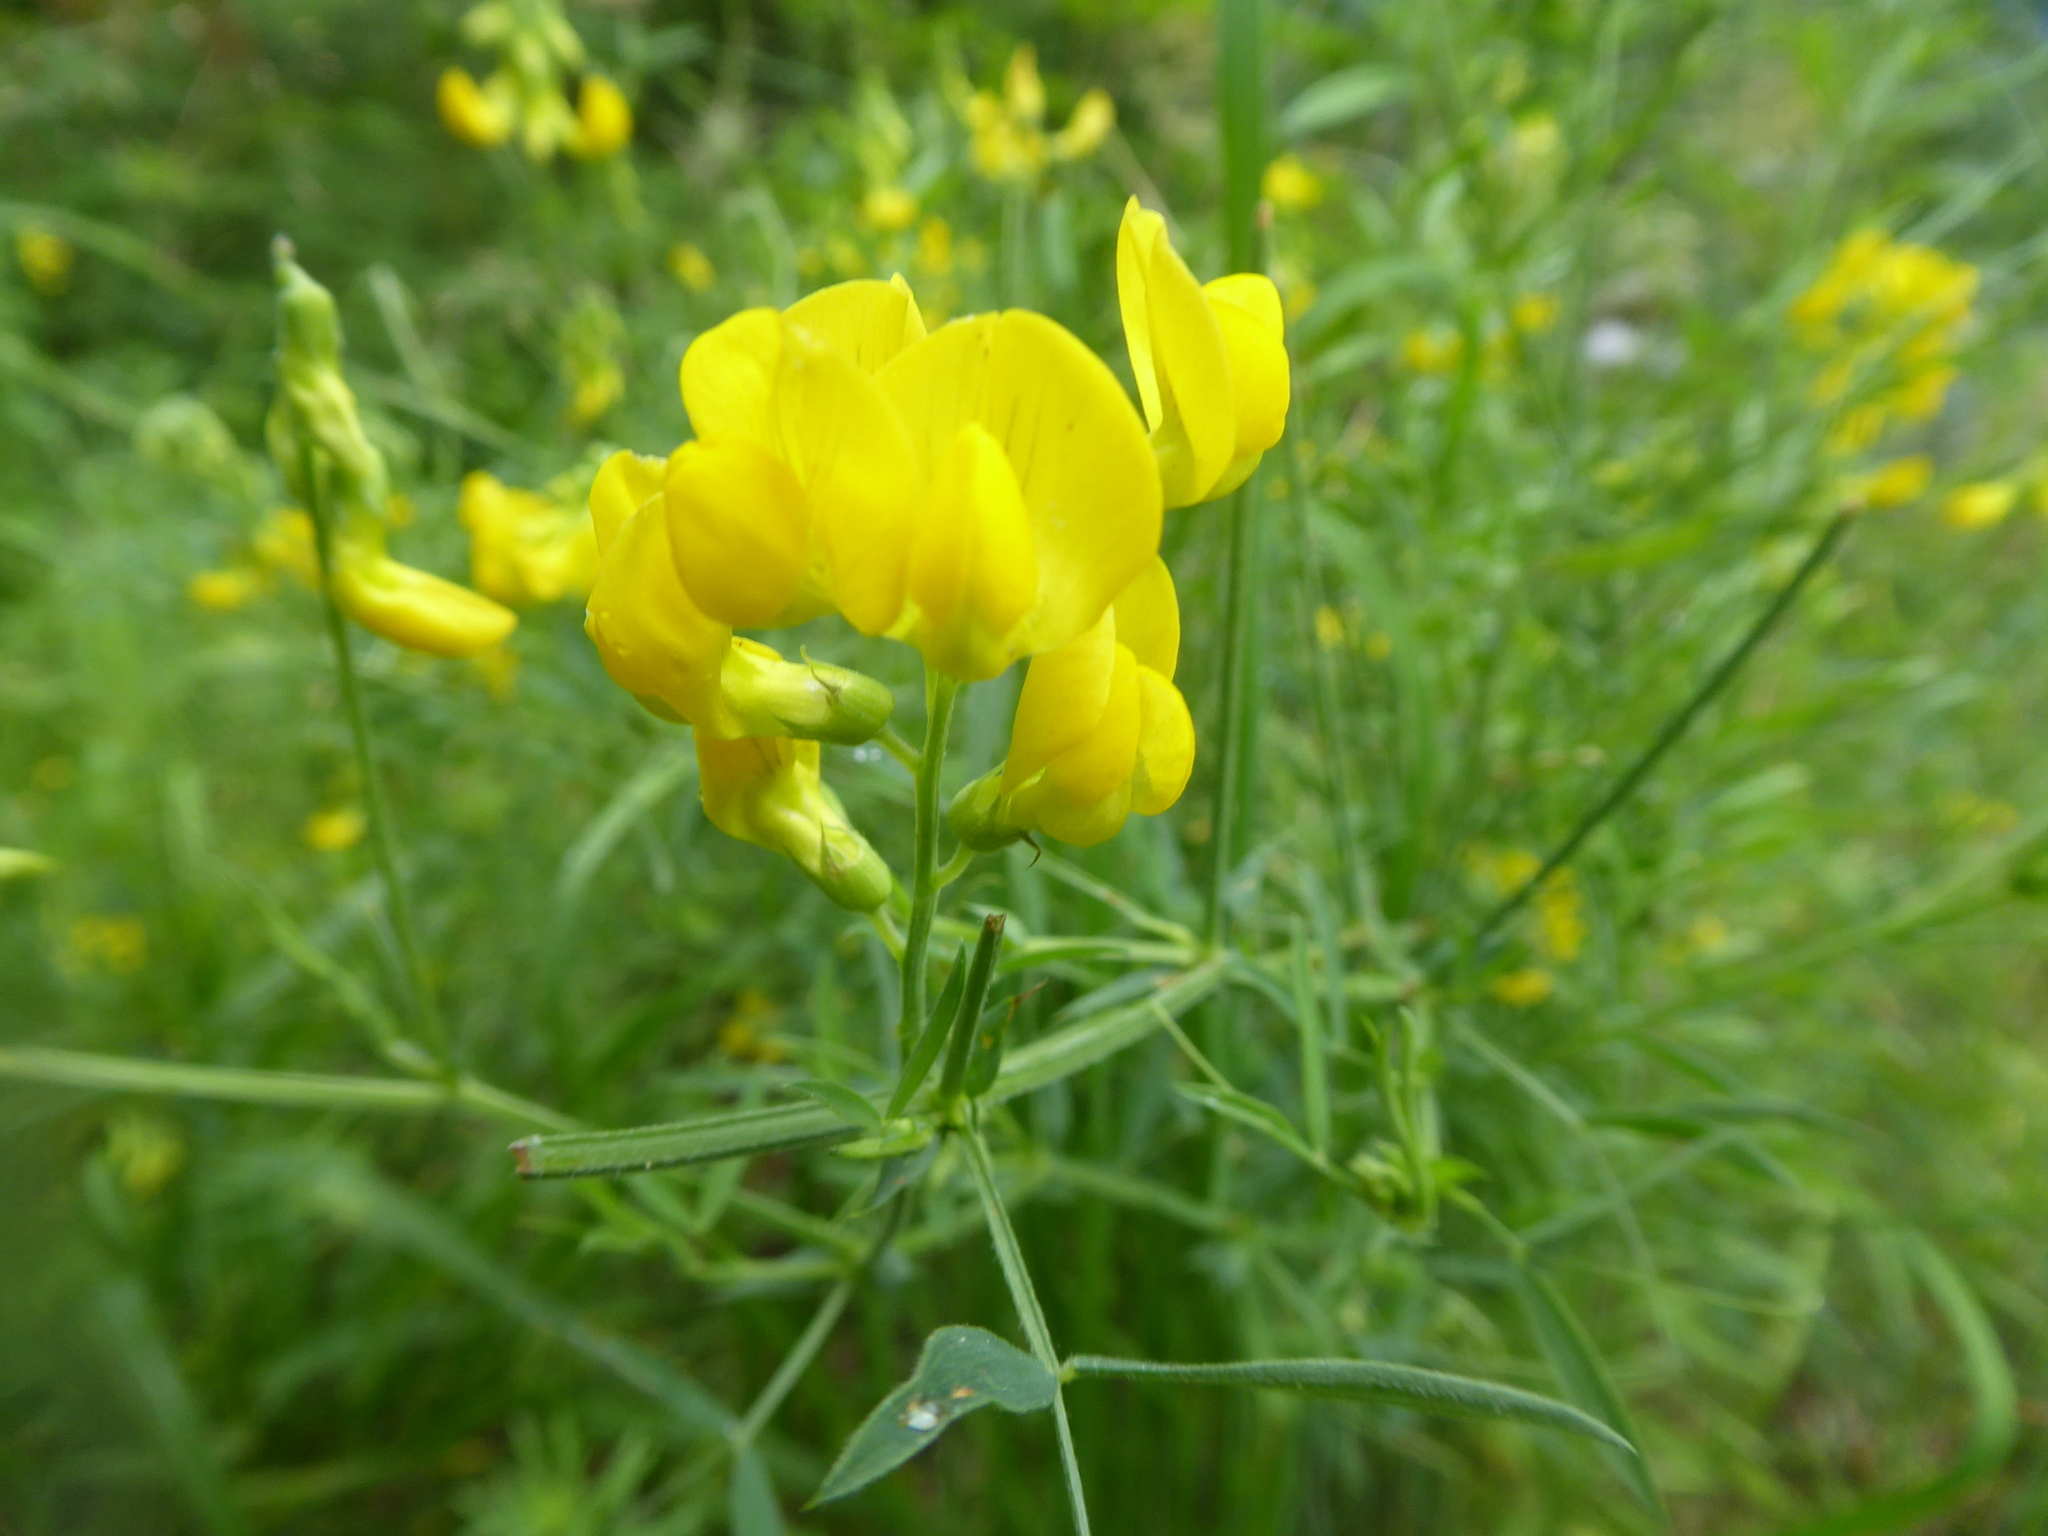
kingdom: Plantae
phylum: Tracheophyta
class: Magnoliopsida
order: Fabales
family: Fabaceae
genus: Lathyrus
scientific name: Lathyrus pratensis
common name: Meadow vetchling
